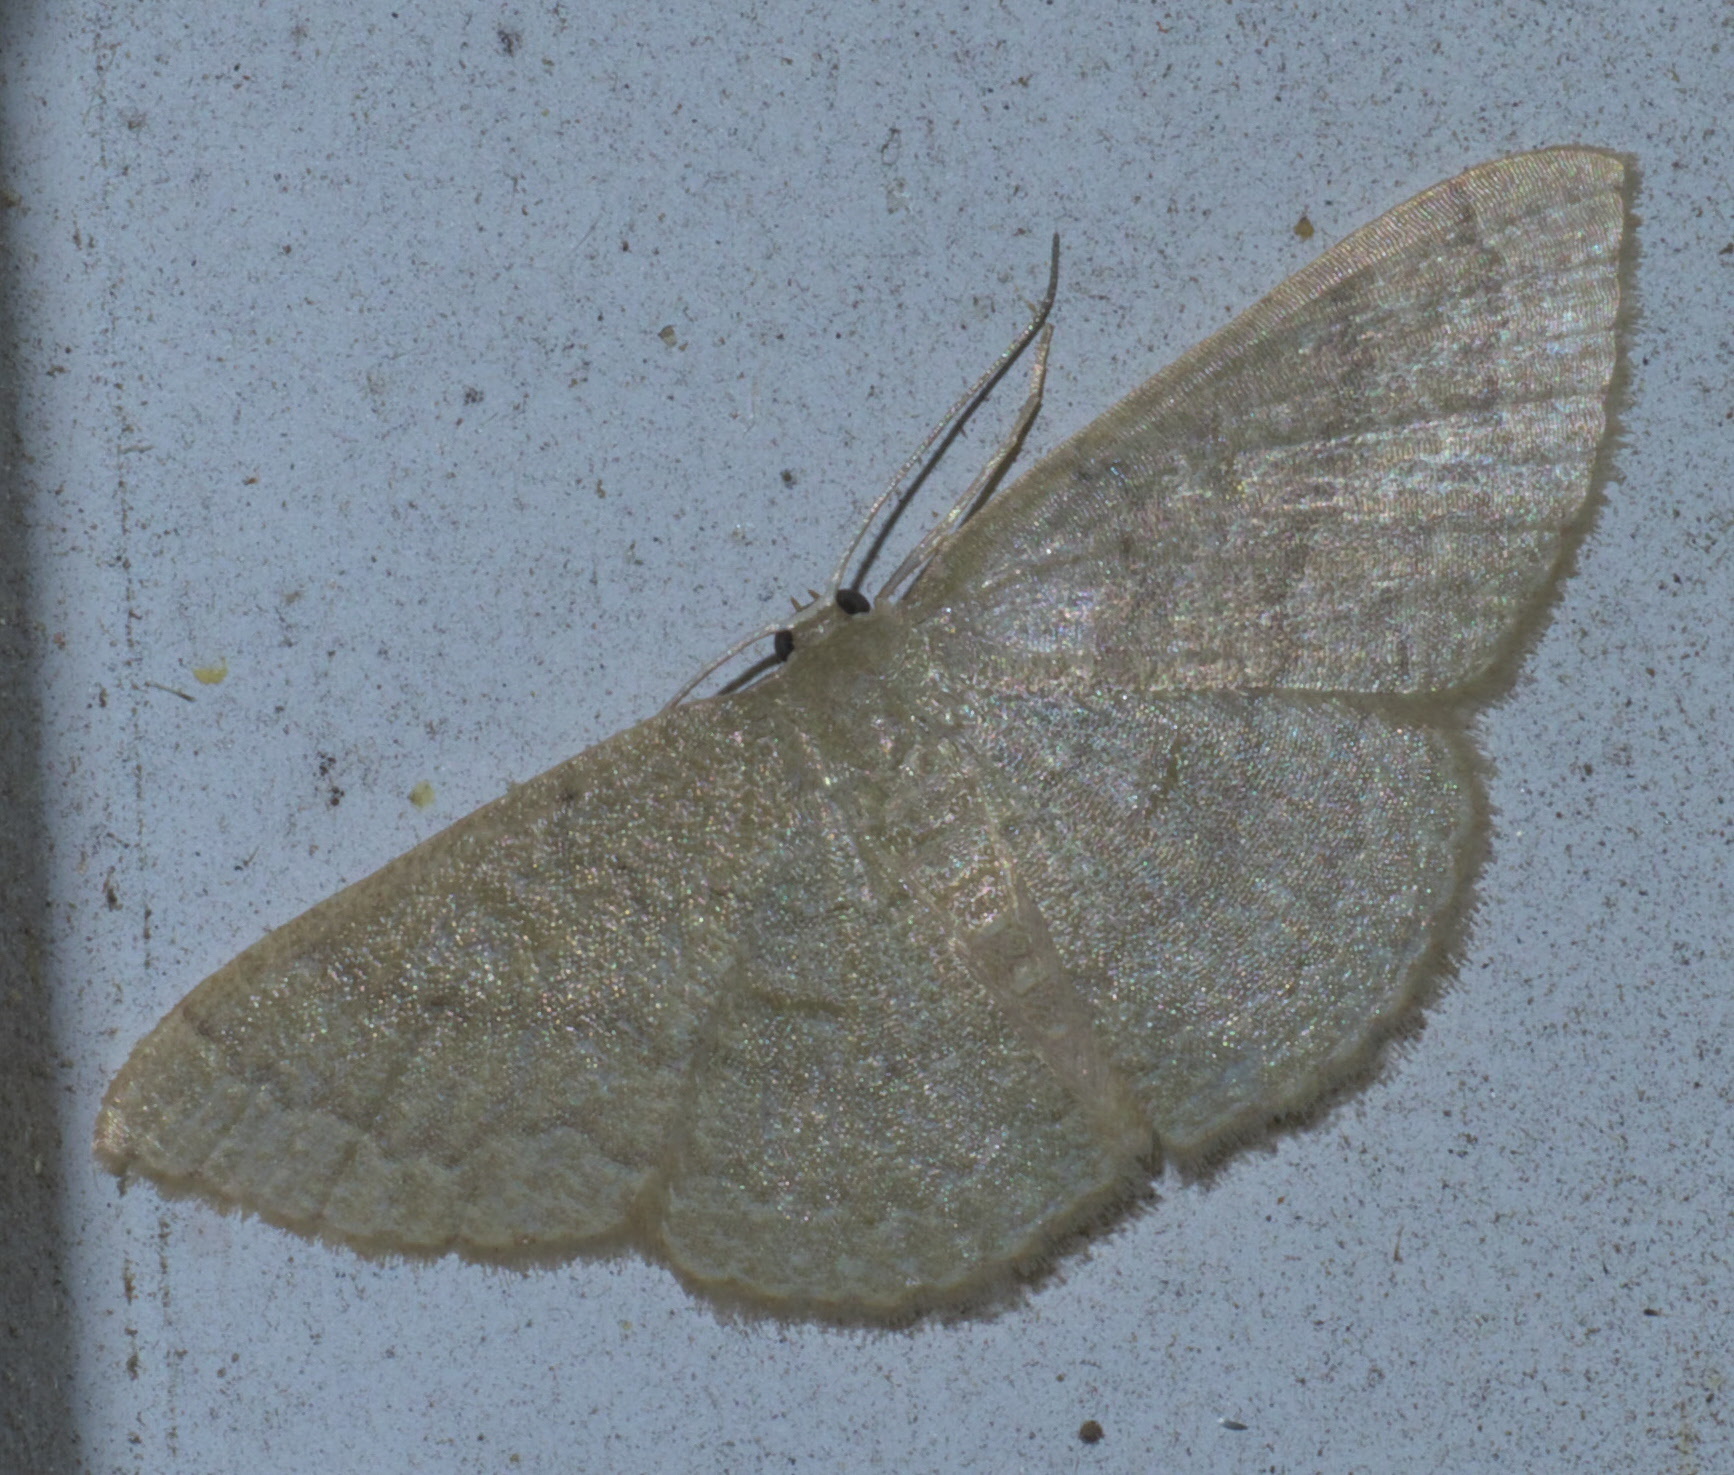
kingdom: Animalia
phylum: Arthropoda
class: Insecta
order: Lepidoptera
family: Geometridae
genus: Pleuroprucha
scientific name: Pleuroprucha insulsaria
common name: Common tan wave
